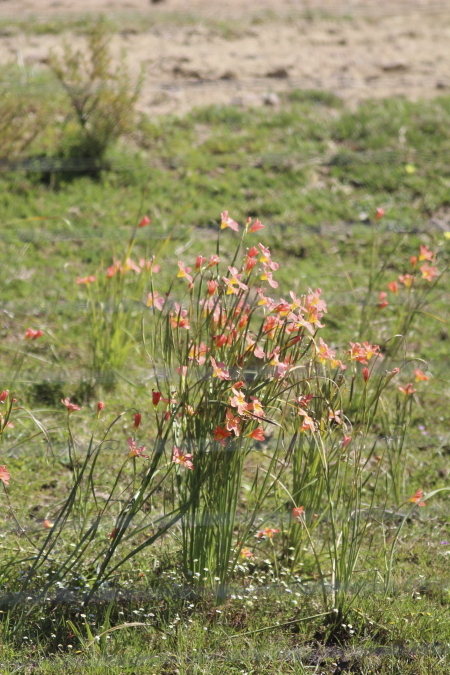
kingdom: Plantae
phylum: Tracheophyta
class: Liliopsida
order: Asparagales
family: Iridaceae
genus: Moraea
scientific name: Moraea miniata
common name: Two-leaf cape-tulip
